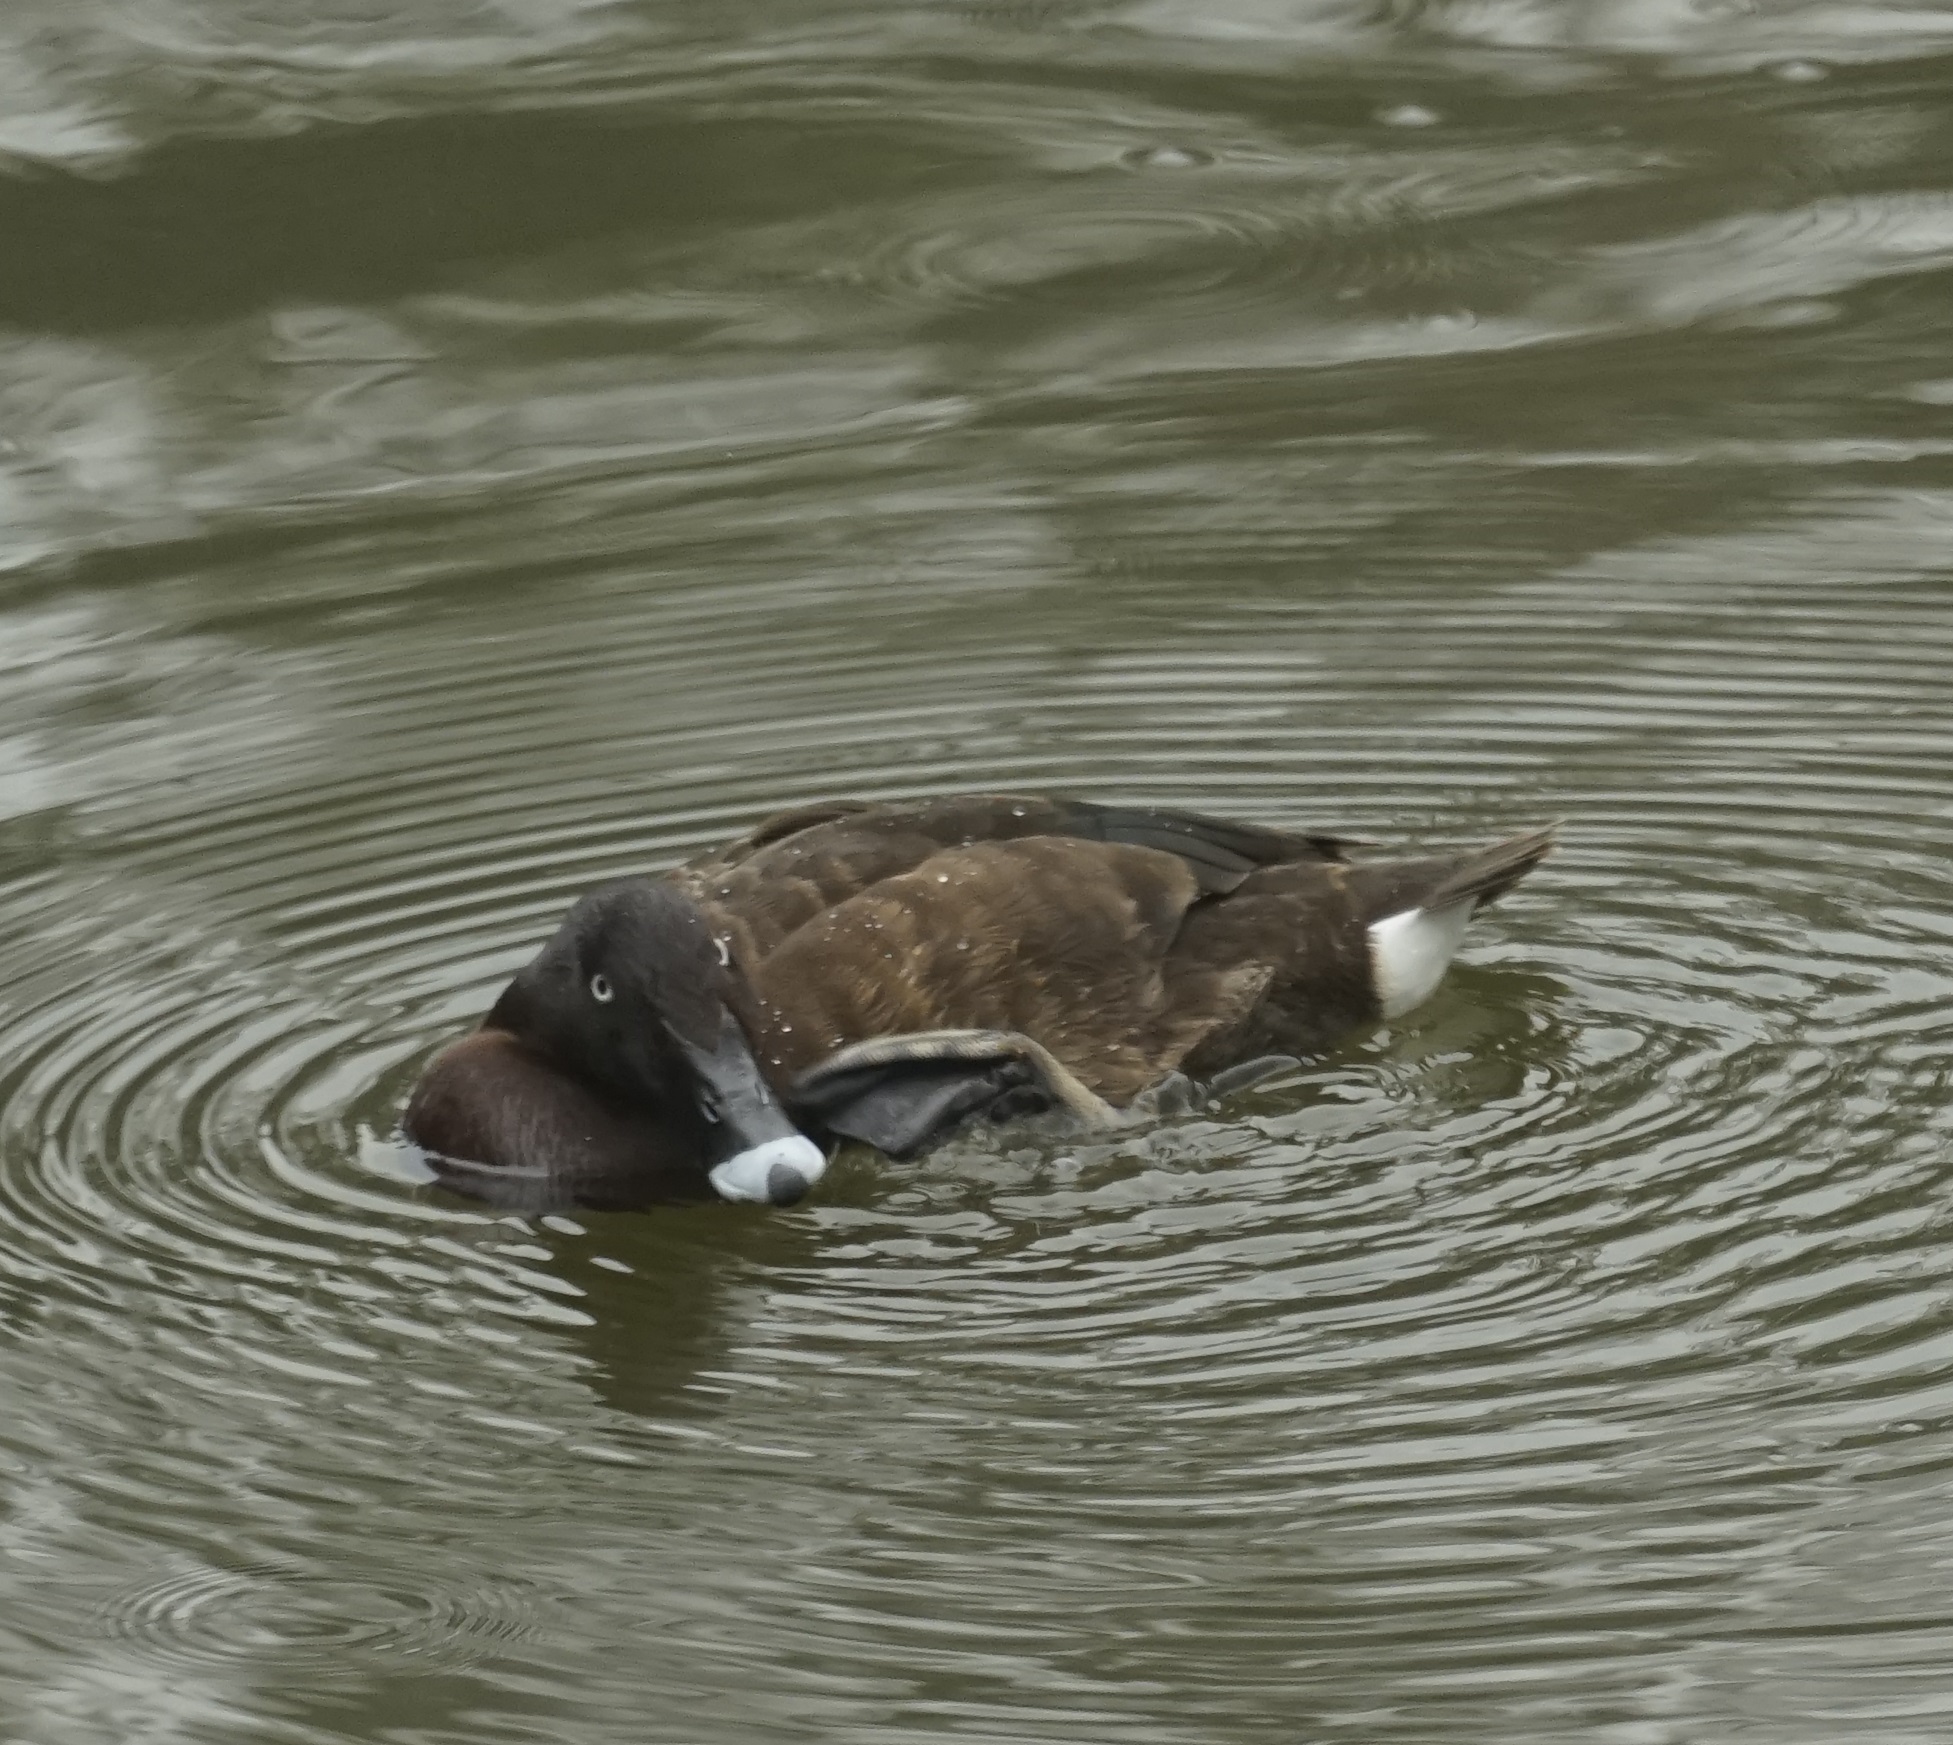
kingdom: Animalia
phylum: Chordata
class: Aves
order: Anseriformes
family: Anatidae
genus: Aythya
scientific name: Aythya australis
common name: Hardhead
